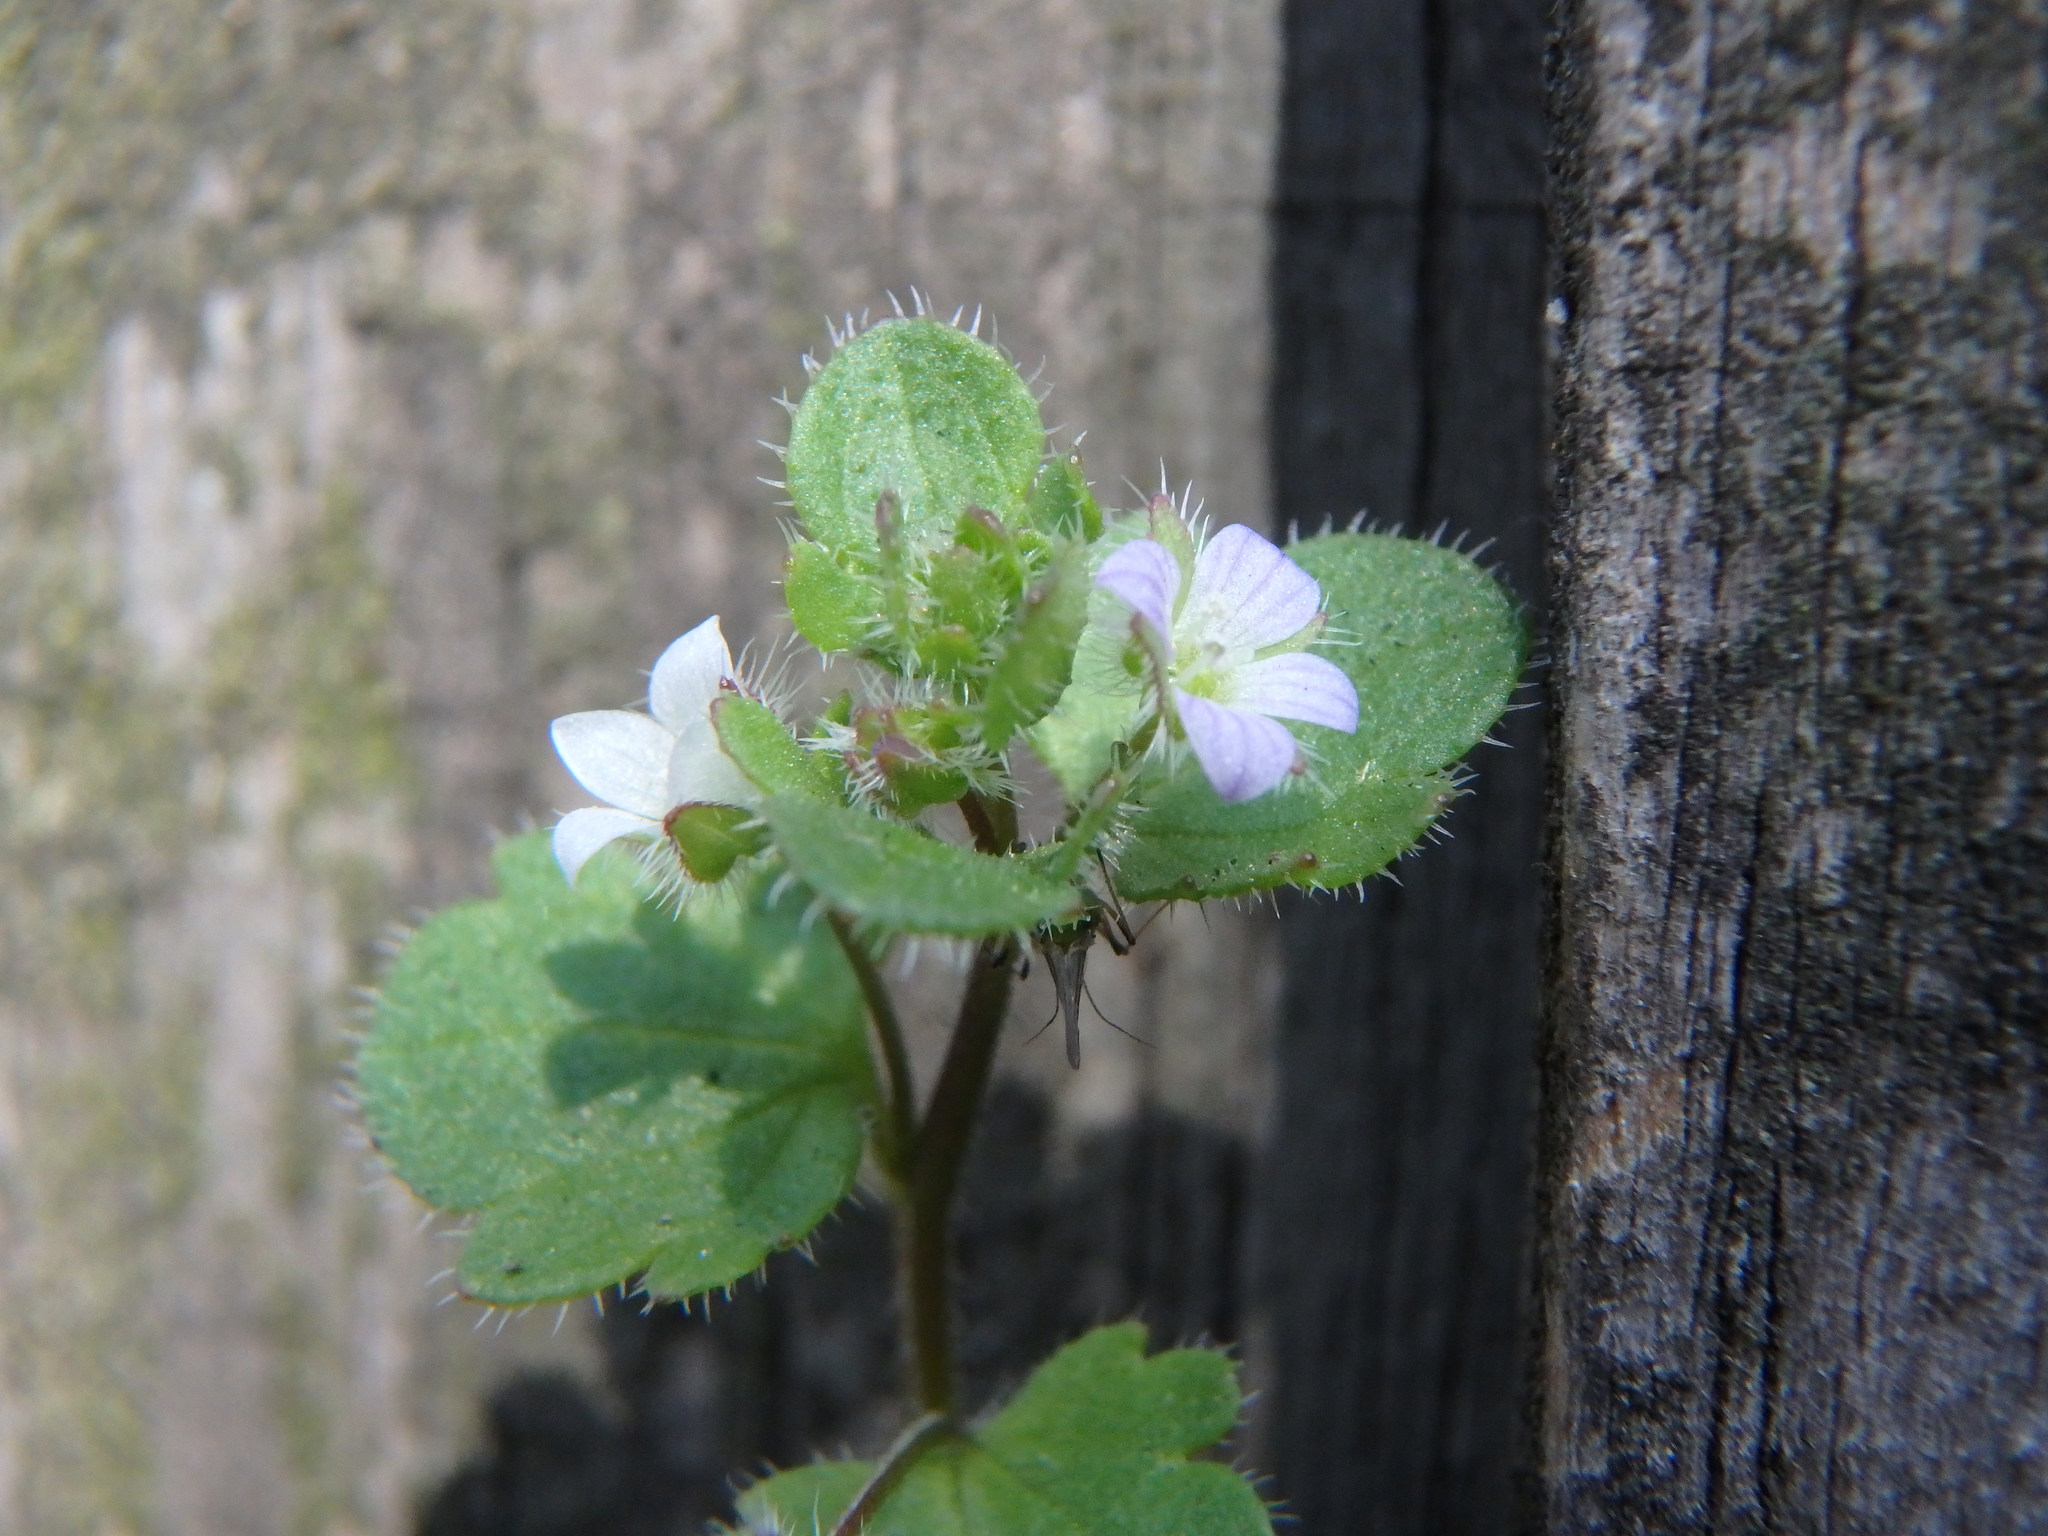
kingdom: Plantae
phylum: Tracheophyta
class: Magnoliopsida
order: Lamiales
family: Plantaginaceae
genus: Veronica
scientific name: Veronica hederifolia
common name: Ivy-leaved speedwell
